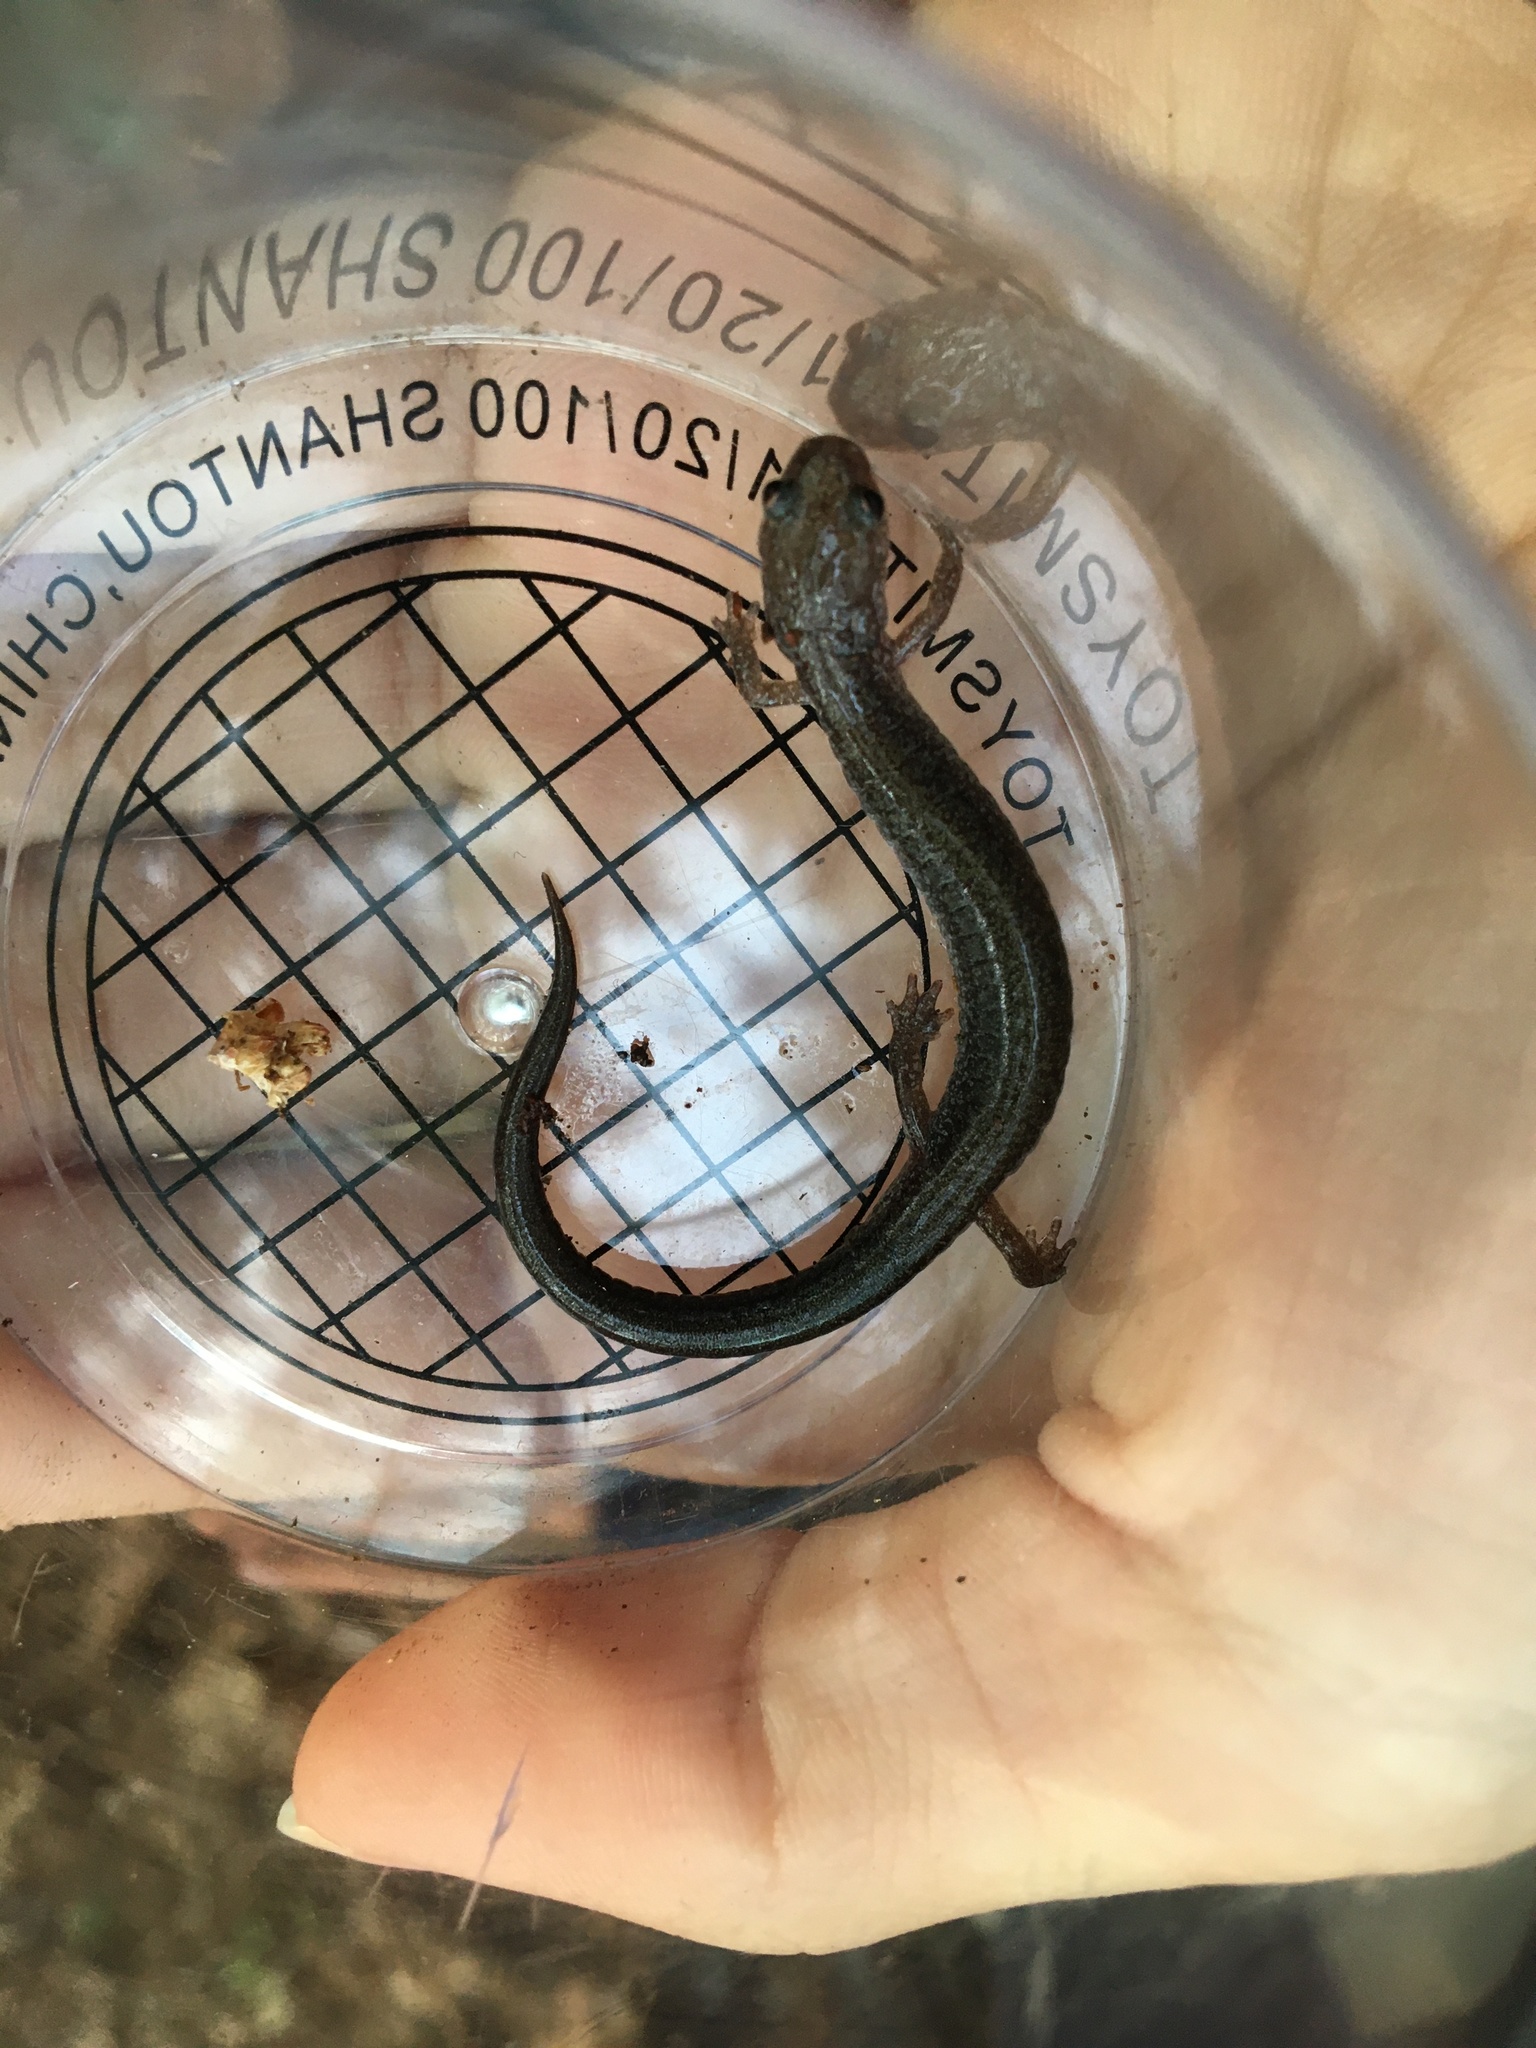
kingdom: Animalia
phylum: Chordata
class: Amphibia
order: Caudata
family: Plethodontidae
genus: Plethodon
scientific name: Plethodon cinereus
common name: Redback salamander
